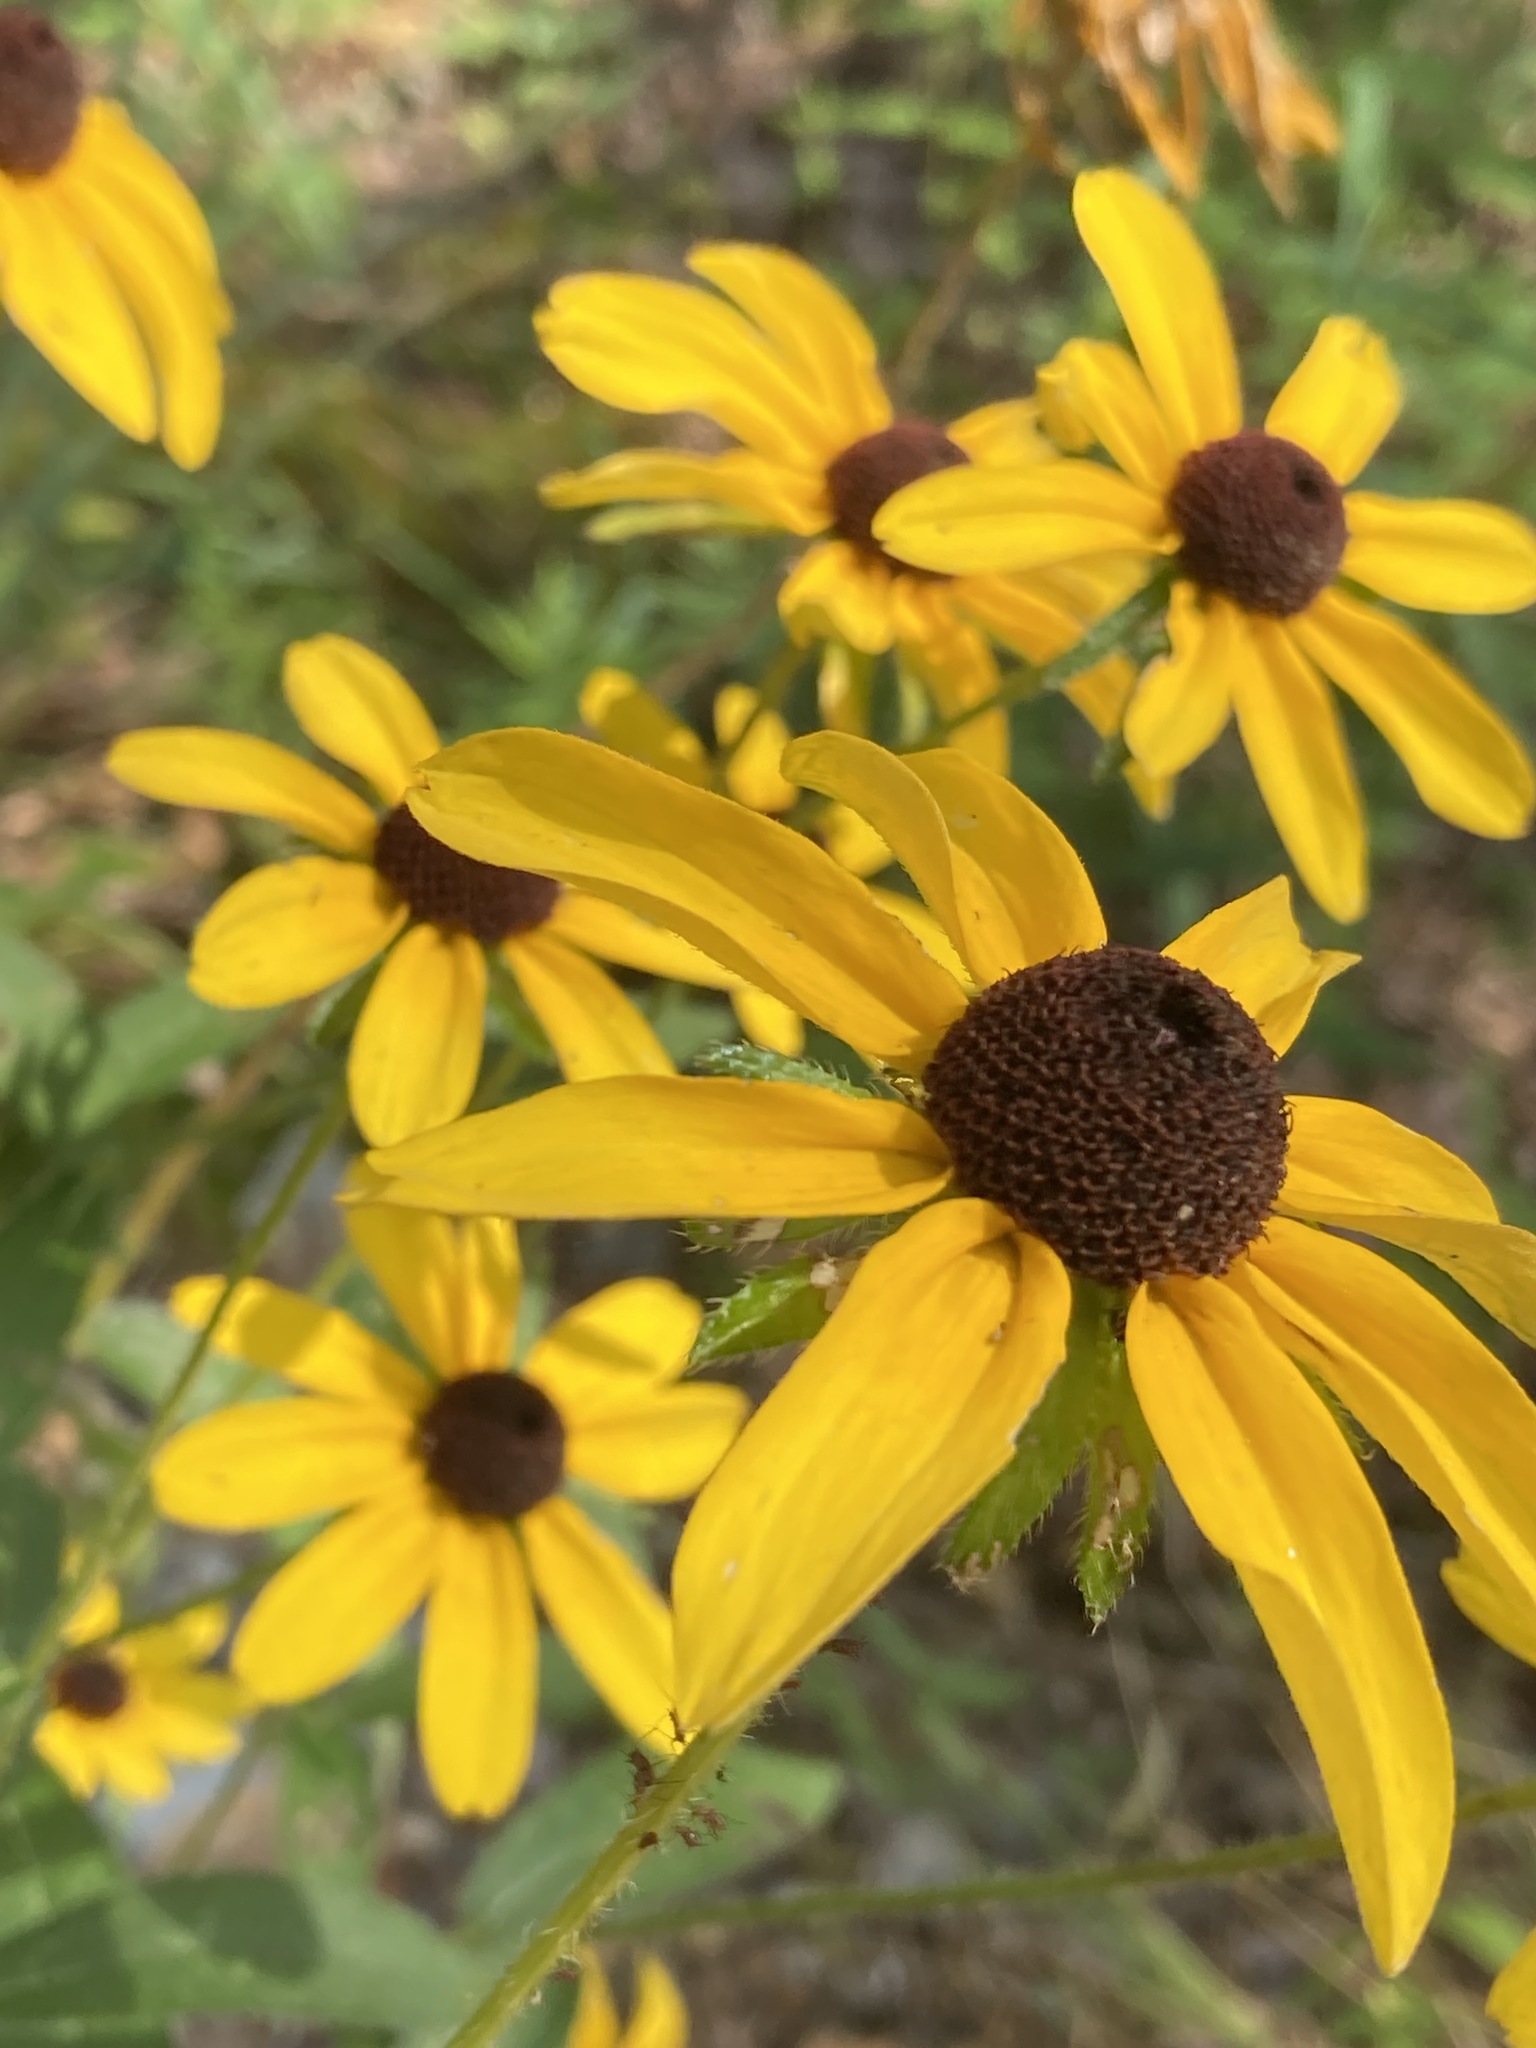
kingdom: Plantae
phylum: Tracheophyta
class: Magnoliopsida
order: Asterales
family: Asteraceae
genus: Rudbeckia
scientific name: Rudbeckia hirta
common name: Black-eyed-susan
